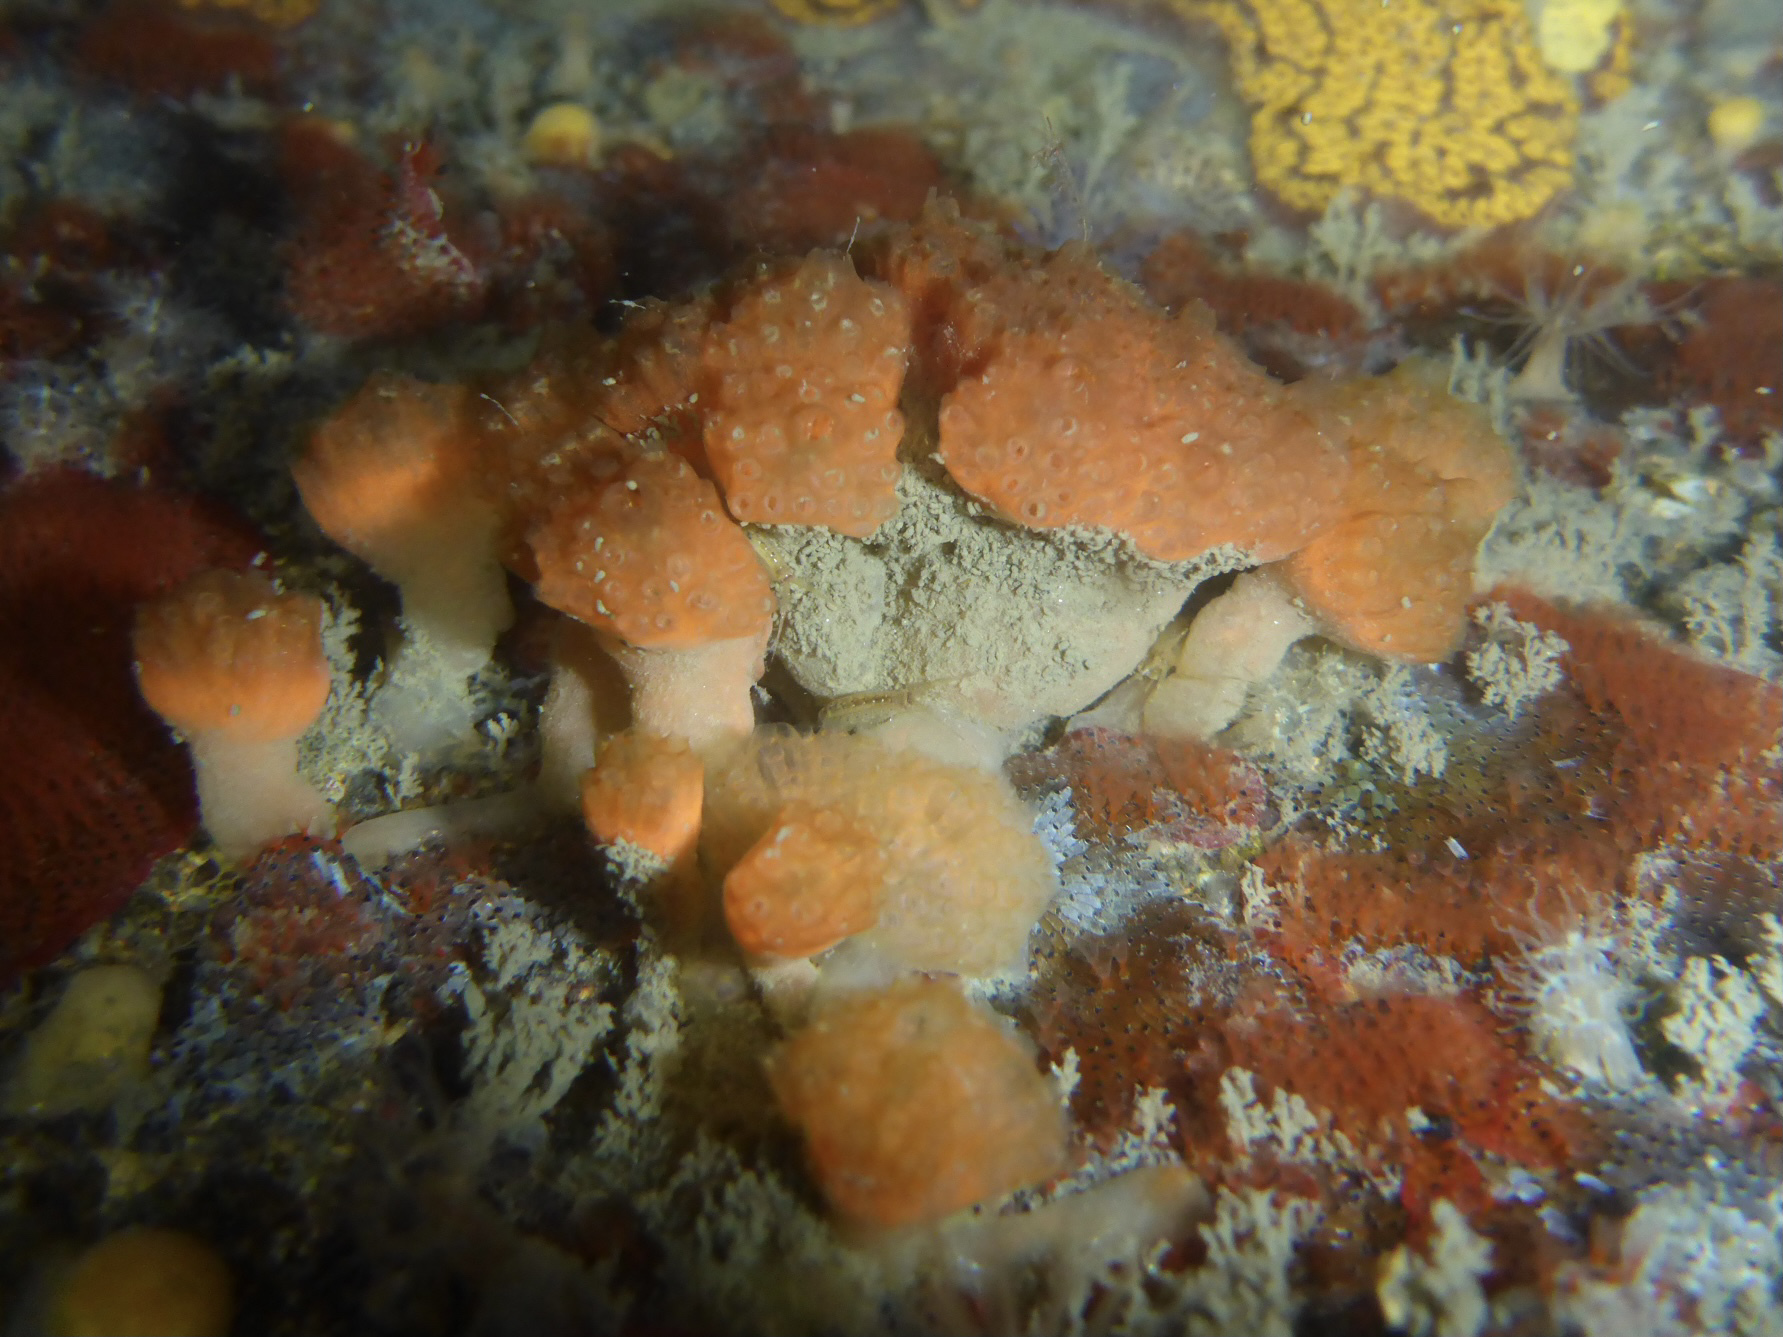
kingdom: Animalia
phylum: Chordata
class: Ascidiacea
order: Aplousobranchia
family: Holozoidae
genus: Distaplia
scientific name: Distaplia occidentalis
